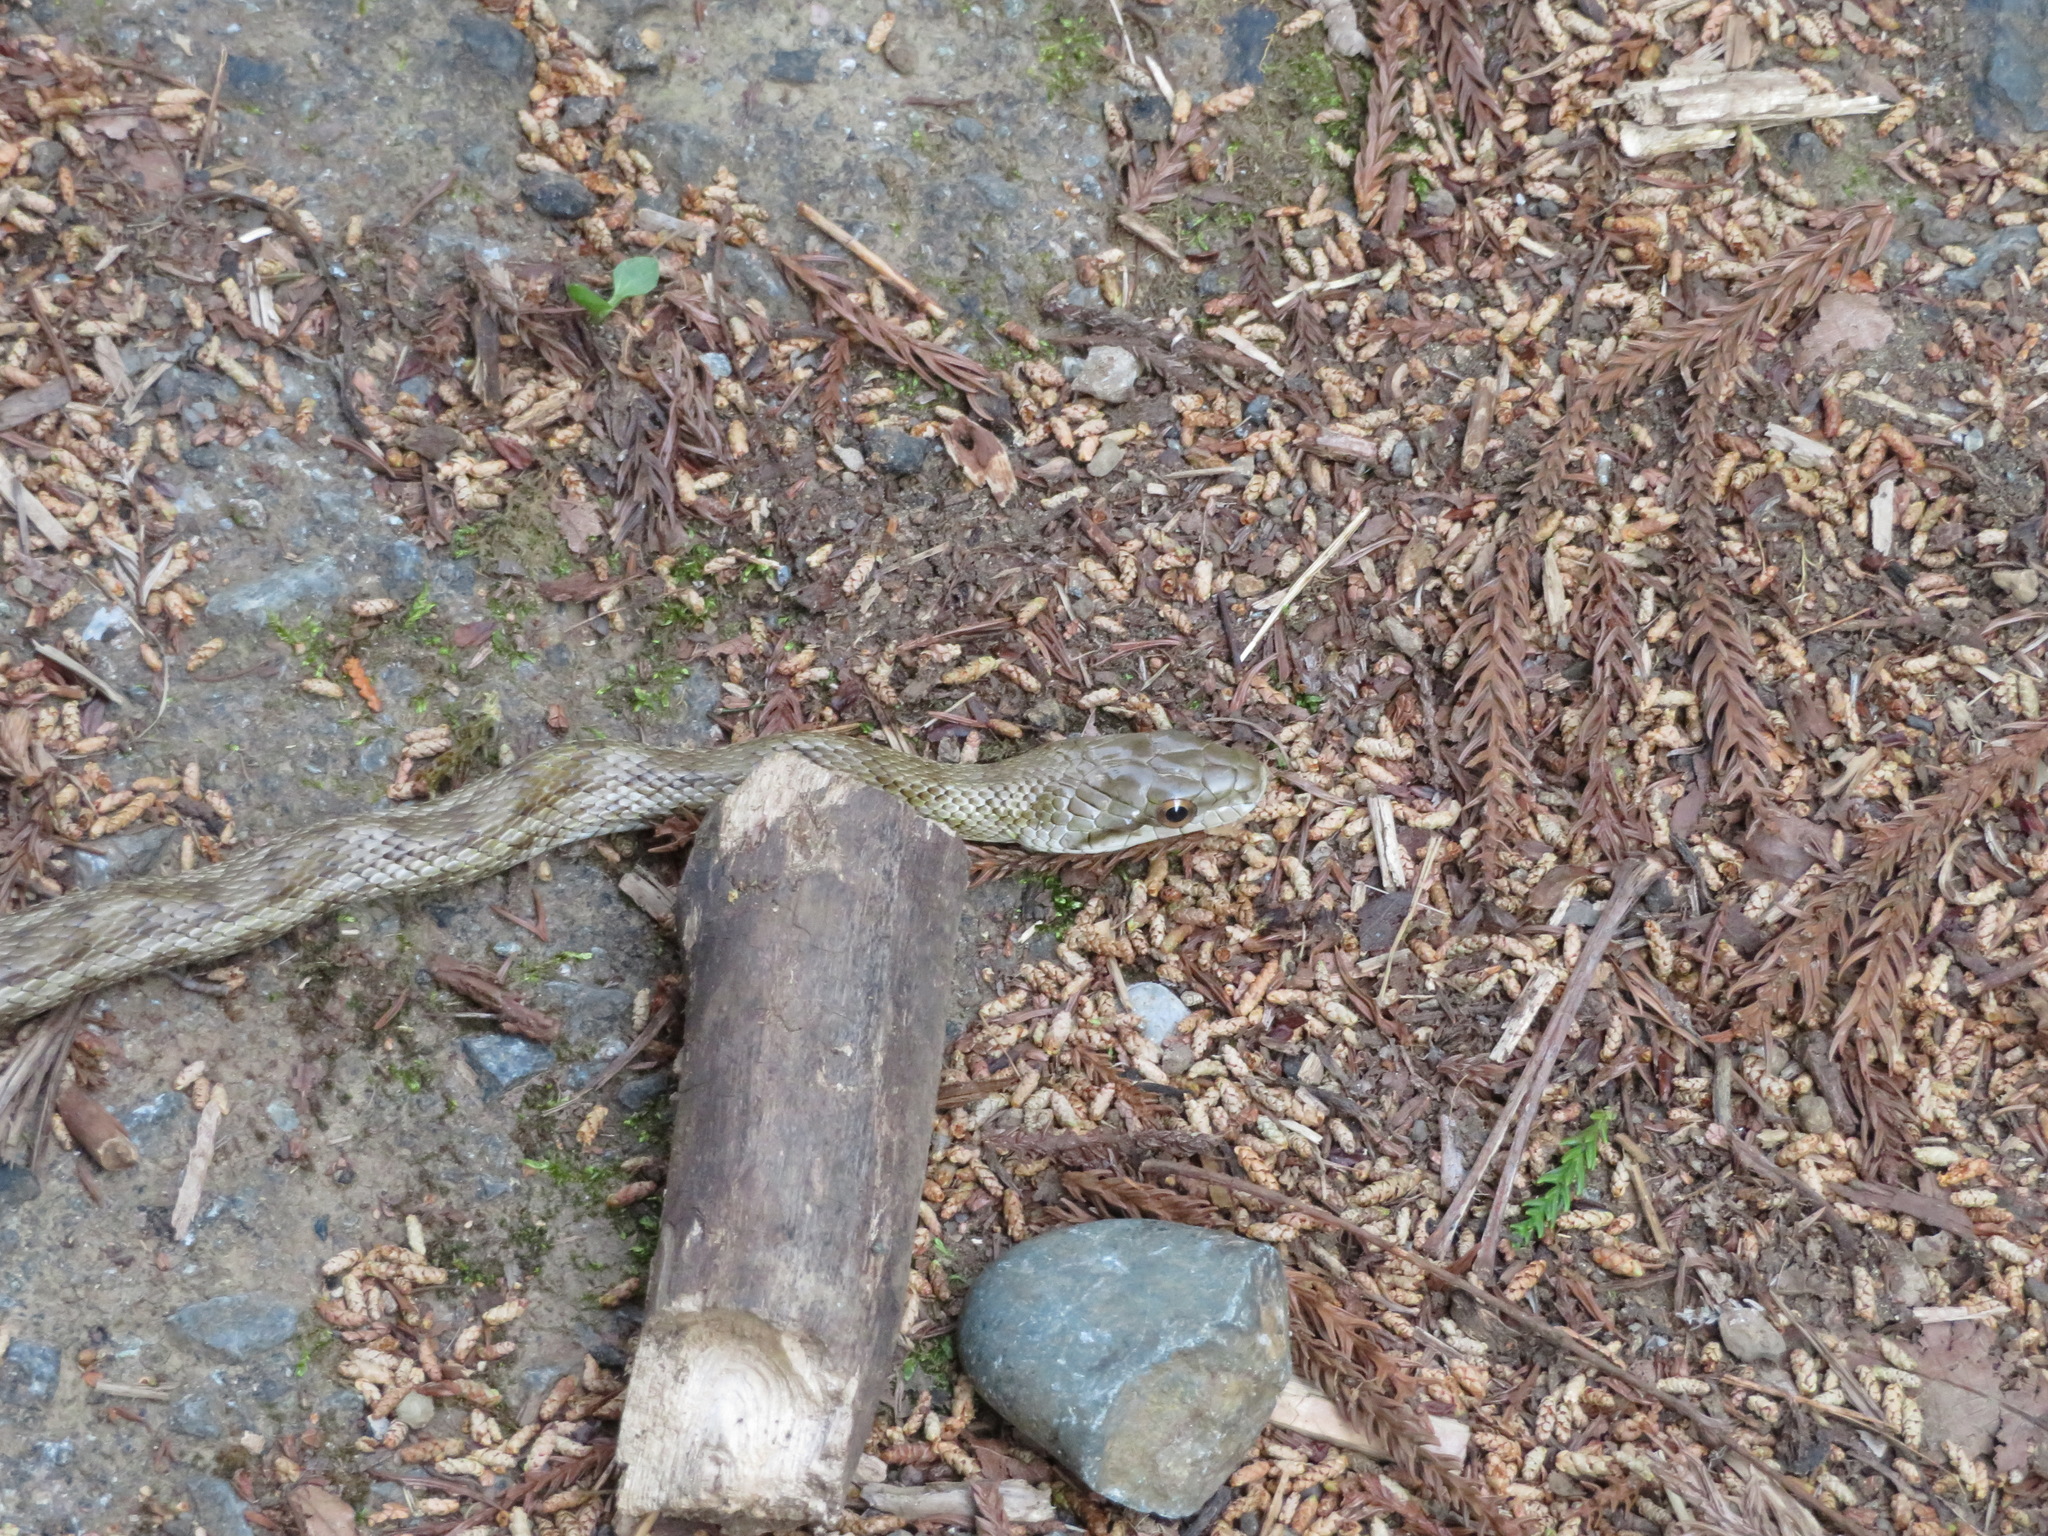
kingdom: Animalia
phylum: Chordata
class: Squamata
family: Colubridae
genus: Elaphe
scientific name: Elaphe climacophora
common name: Japanese ratsnake
